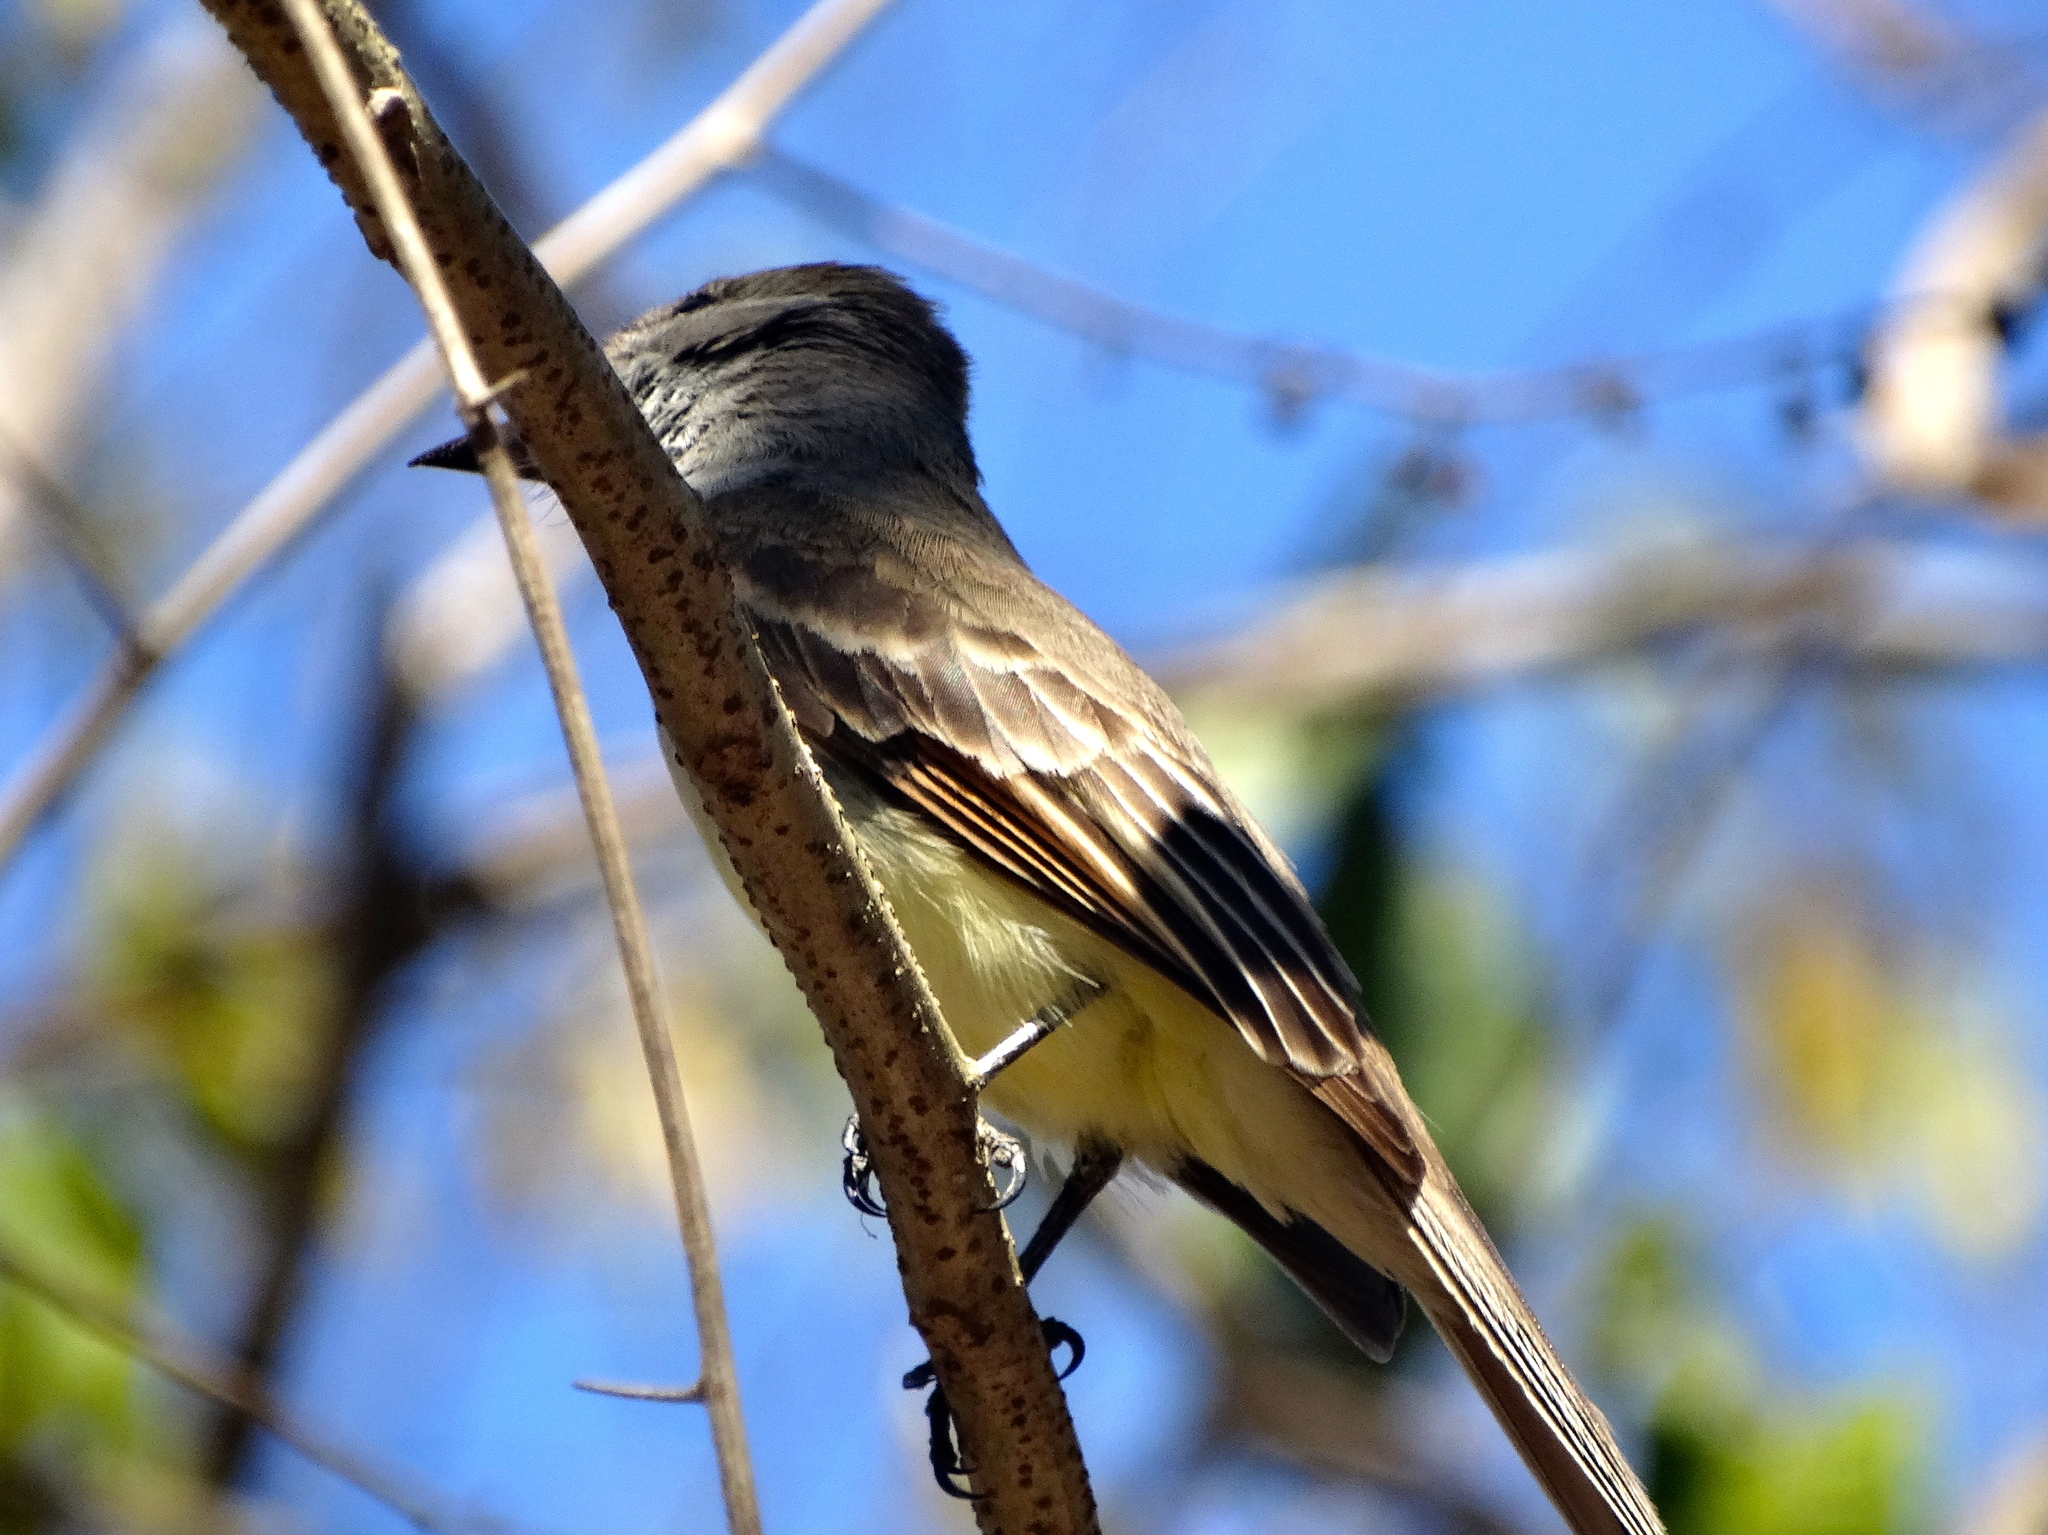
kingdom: Animalia
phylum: Chordata
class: Aves
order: Passeriformes
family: Tyrannidae
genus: Myiarchus
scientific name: Myiarchus
